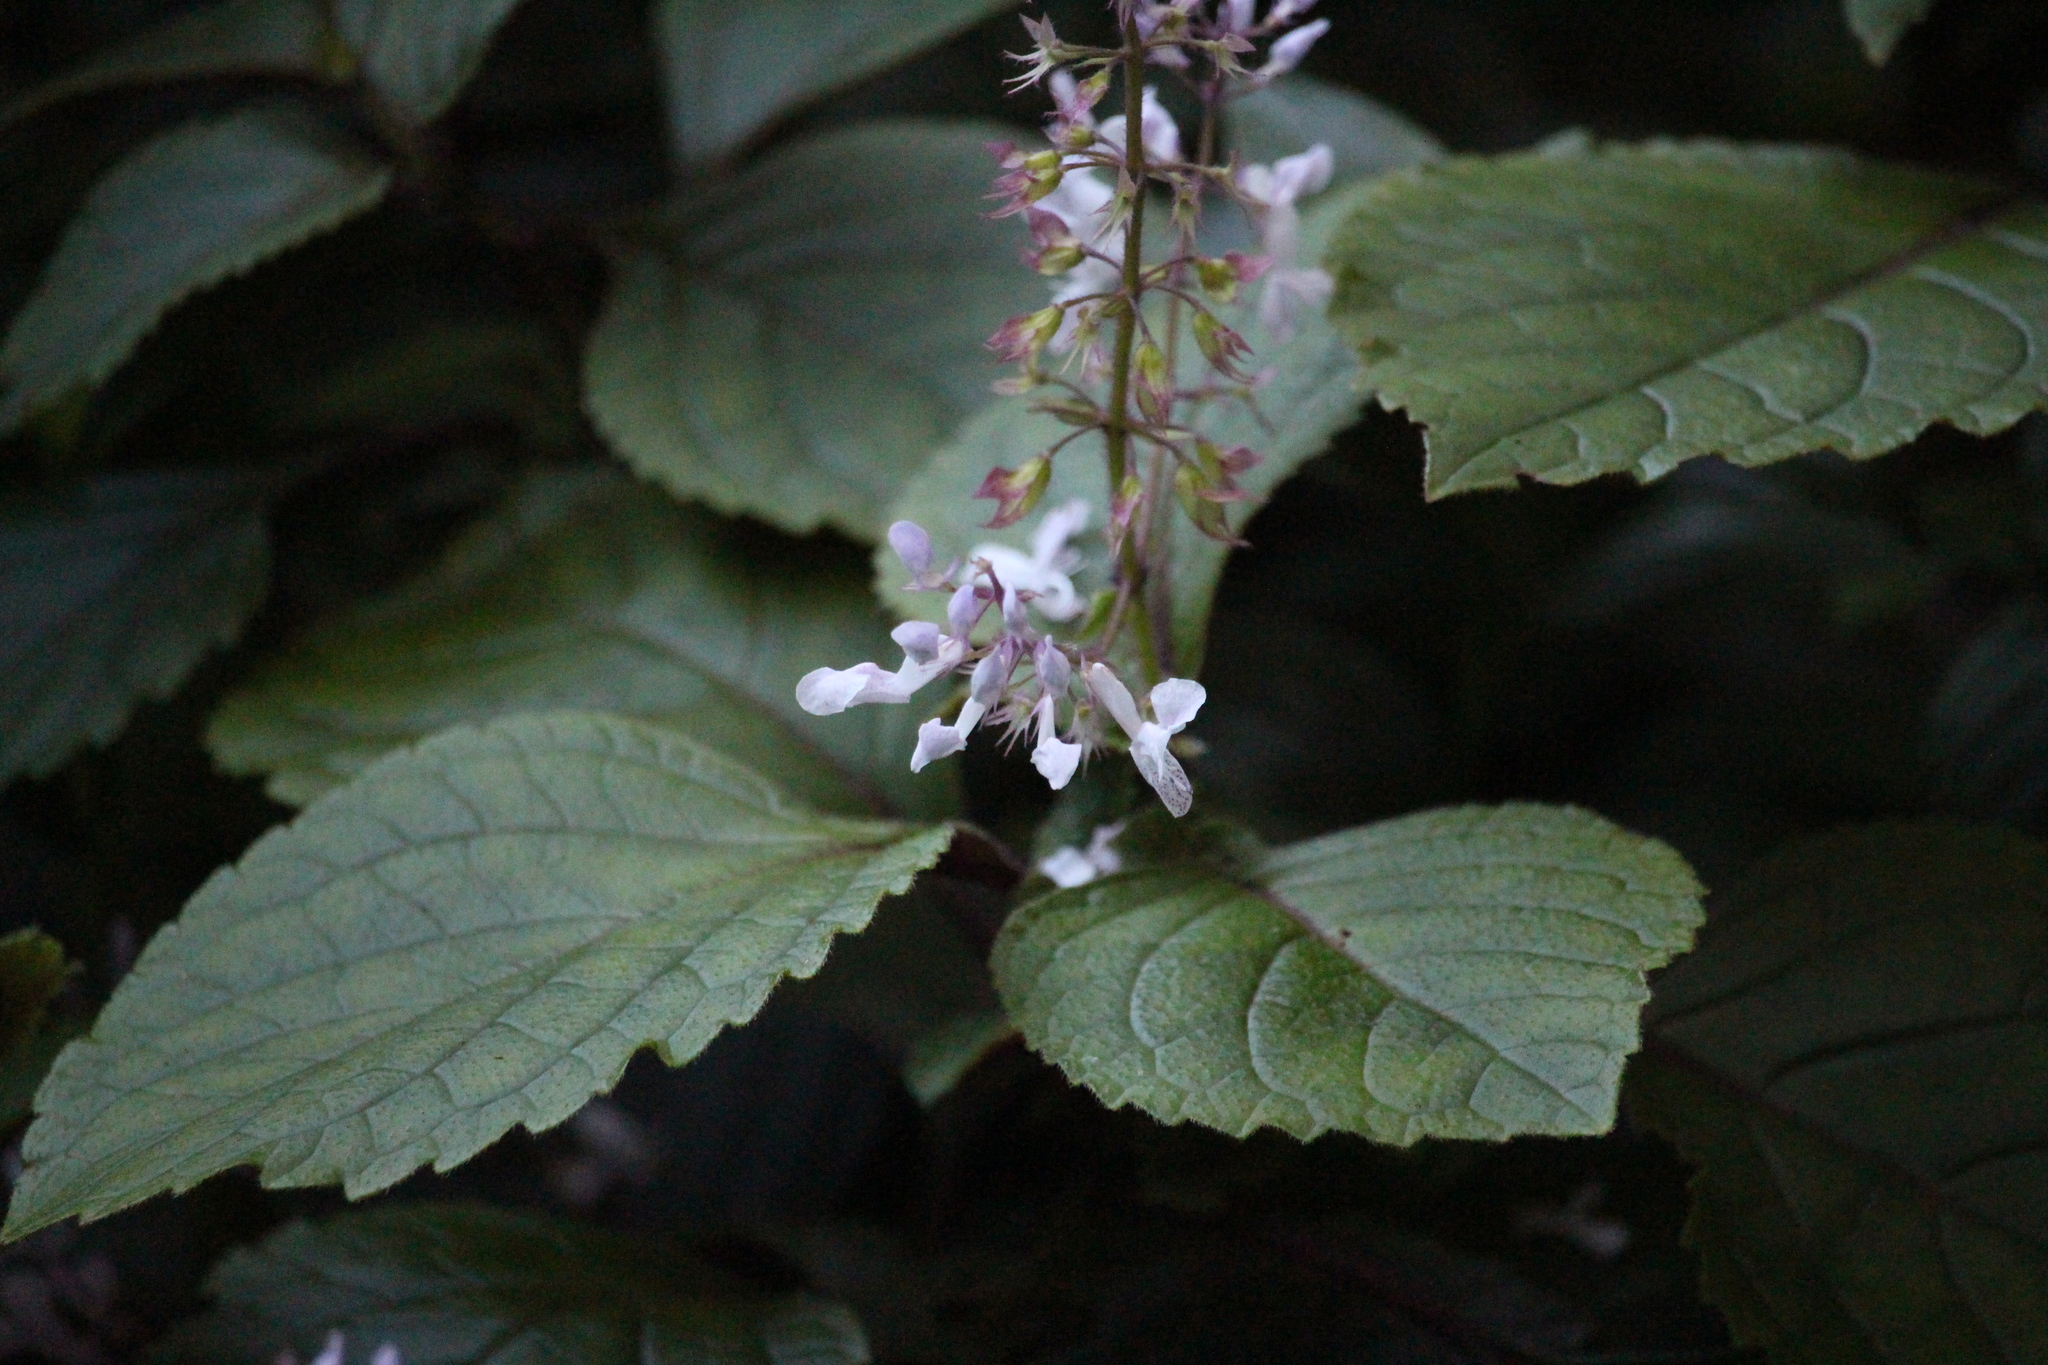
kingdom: Plantae
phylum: Tracheophyta
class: Magnoliopsida
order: Lamiales
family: Lamiaceae
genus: Plectranthus
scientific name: Plectranthus ciliatus
